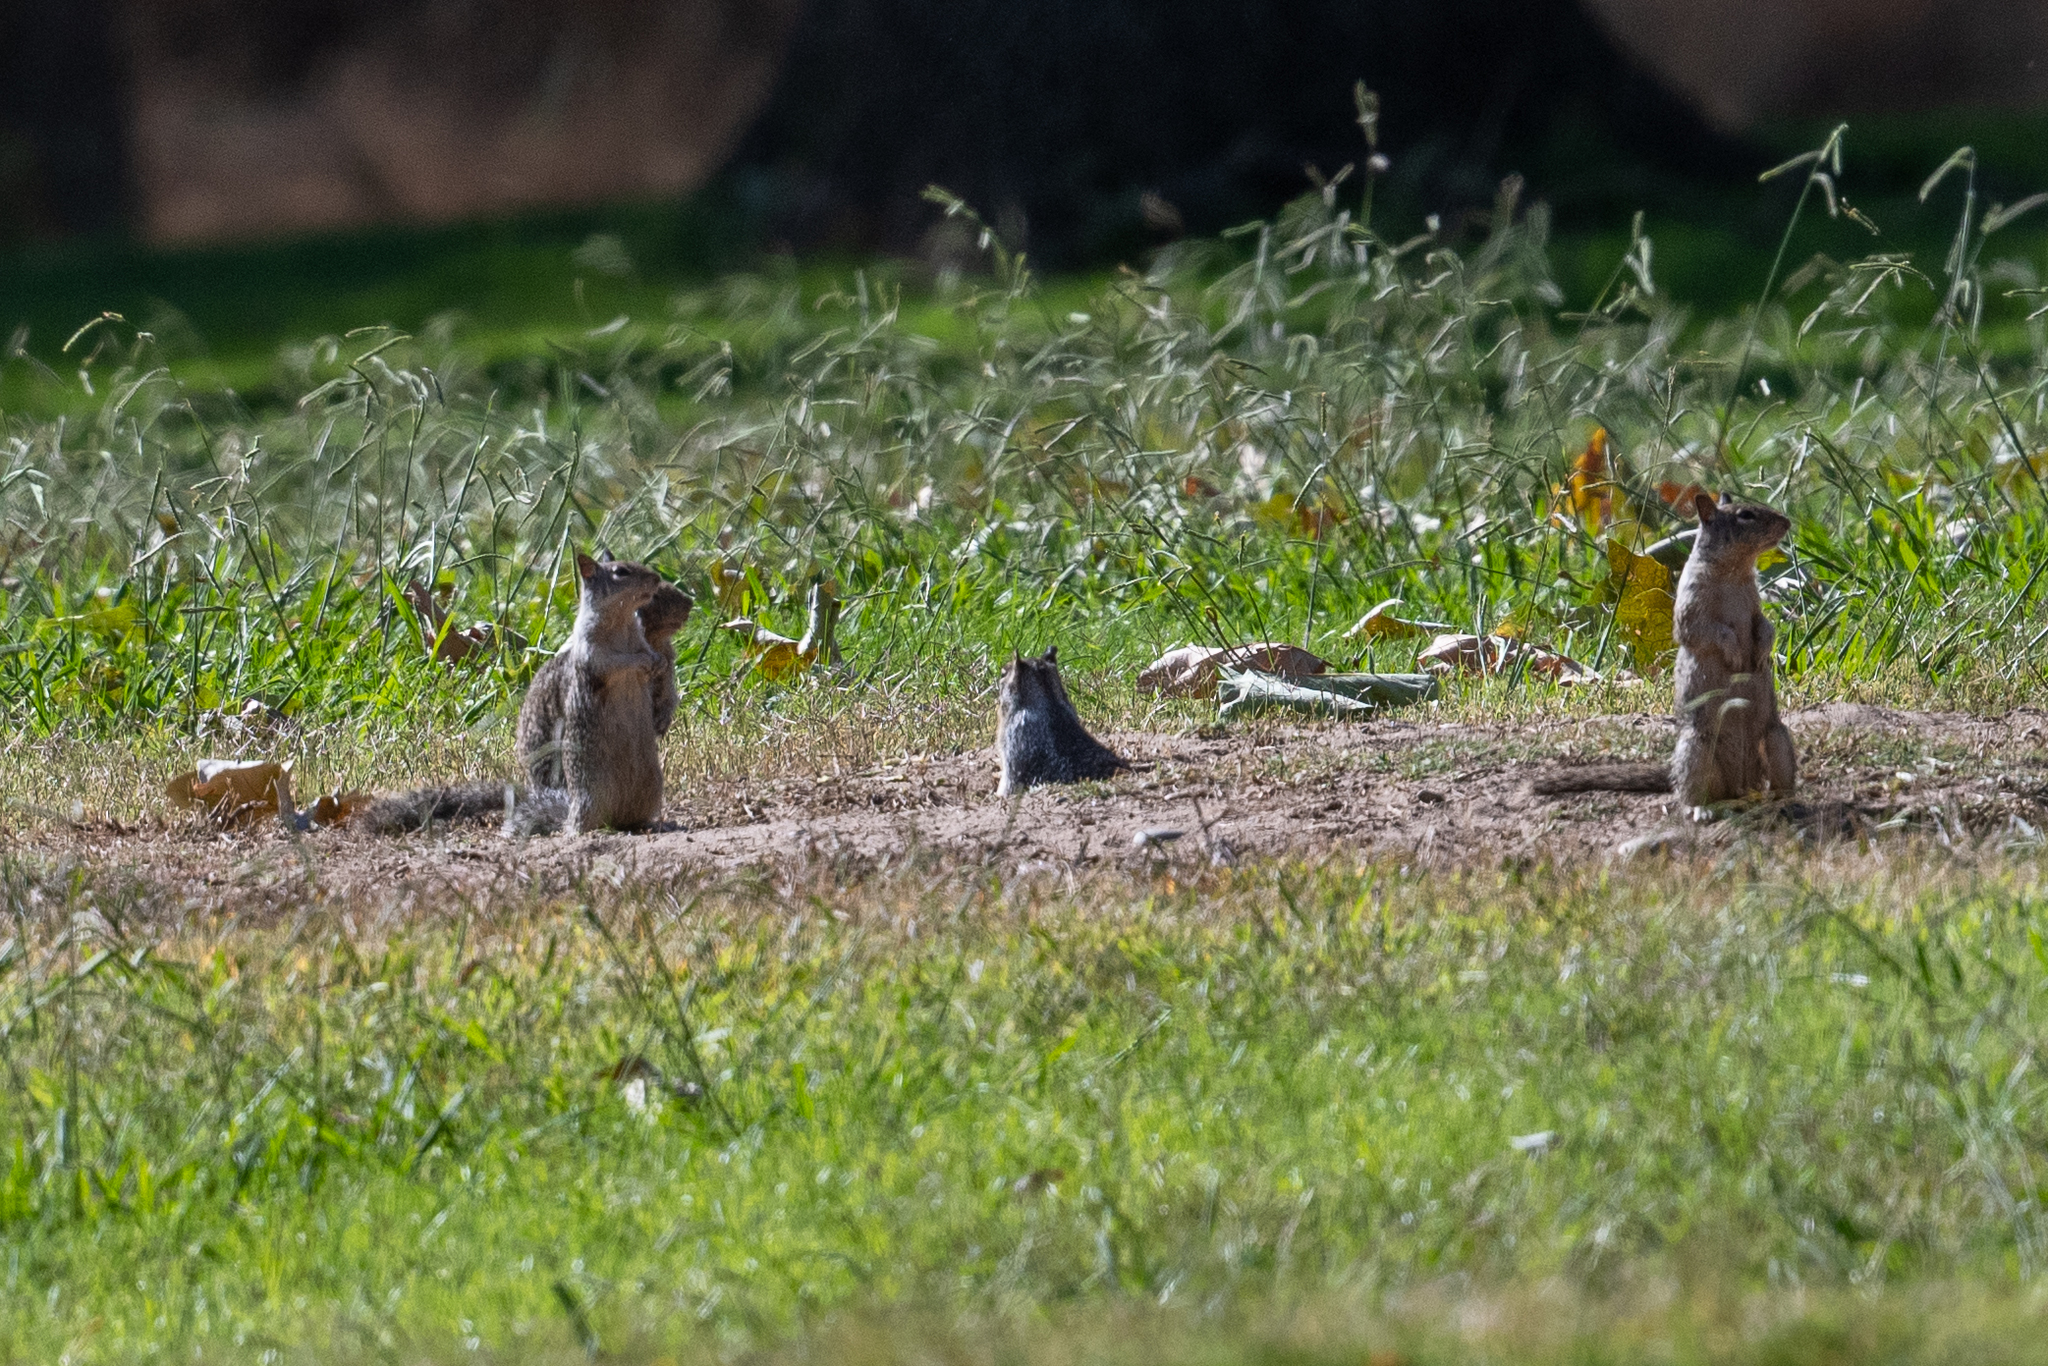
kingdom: Animalia
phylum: Chordata
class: Mammalia
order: Rodentia
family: Sciuridae
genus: Otospermophilus
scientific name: Otospermophilus beecheyi
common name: California ground squirrel
